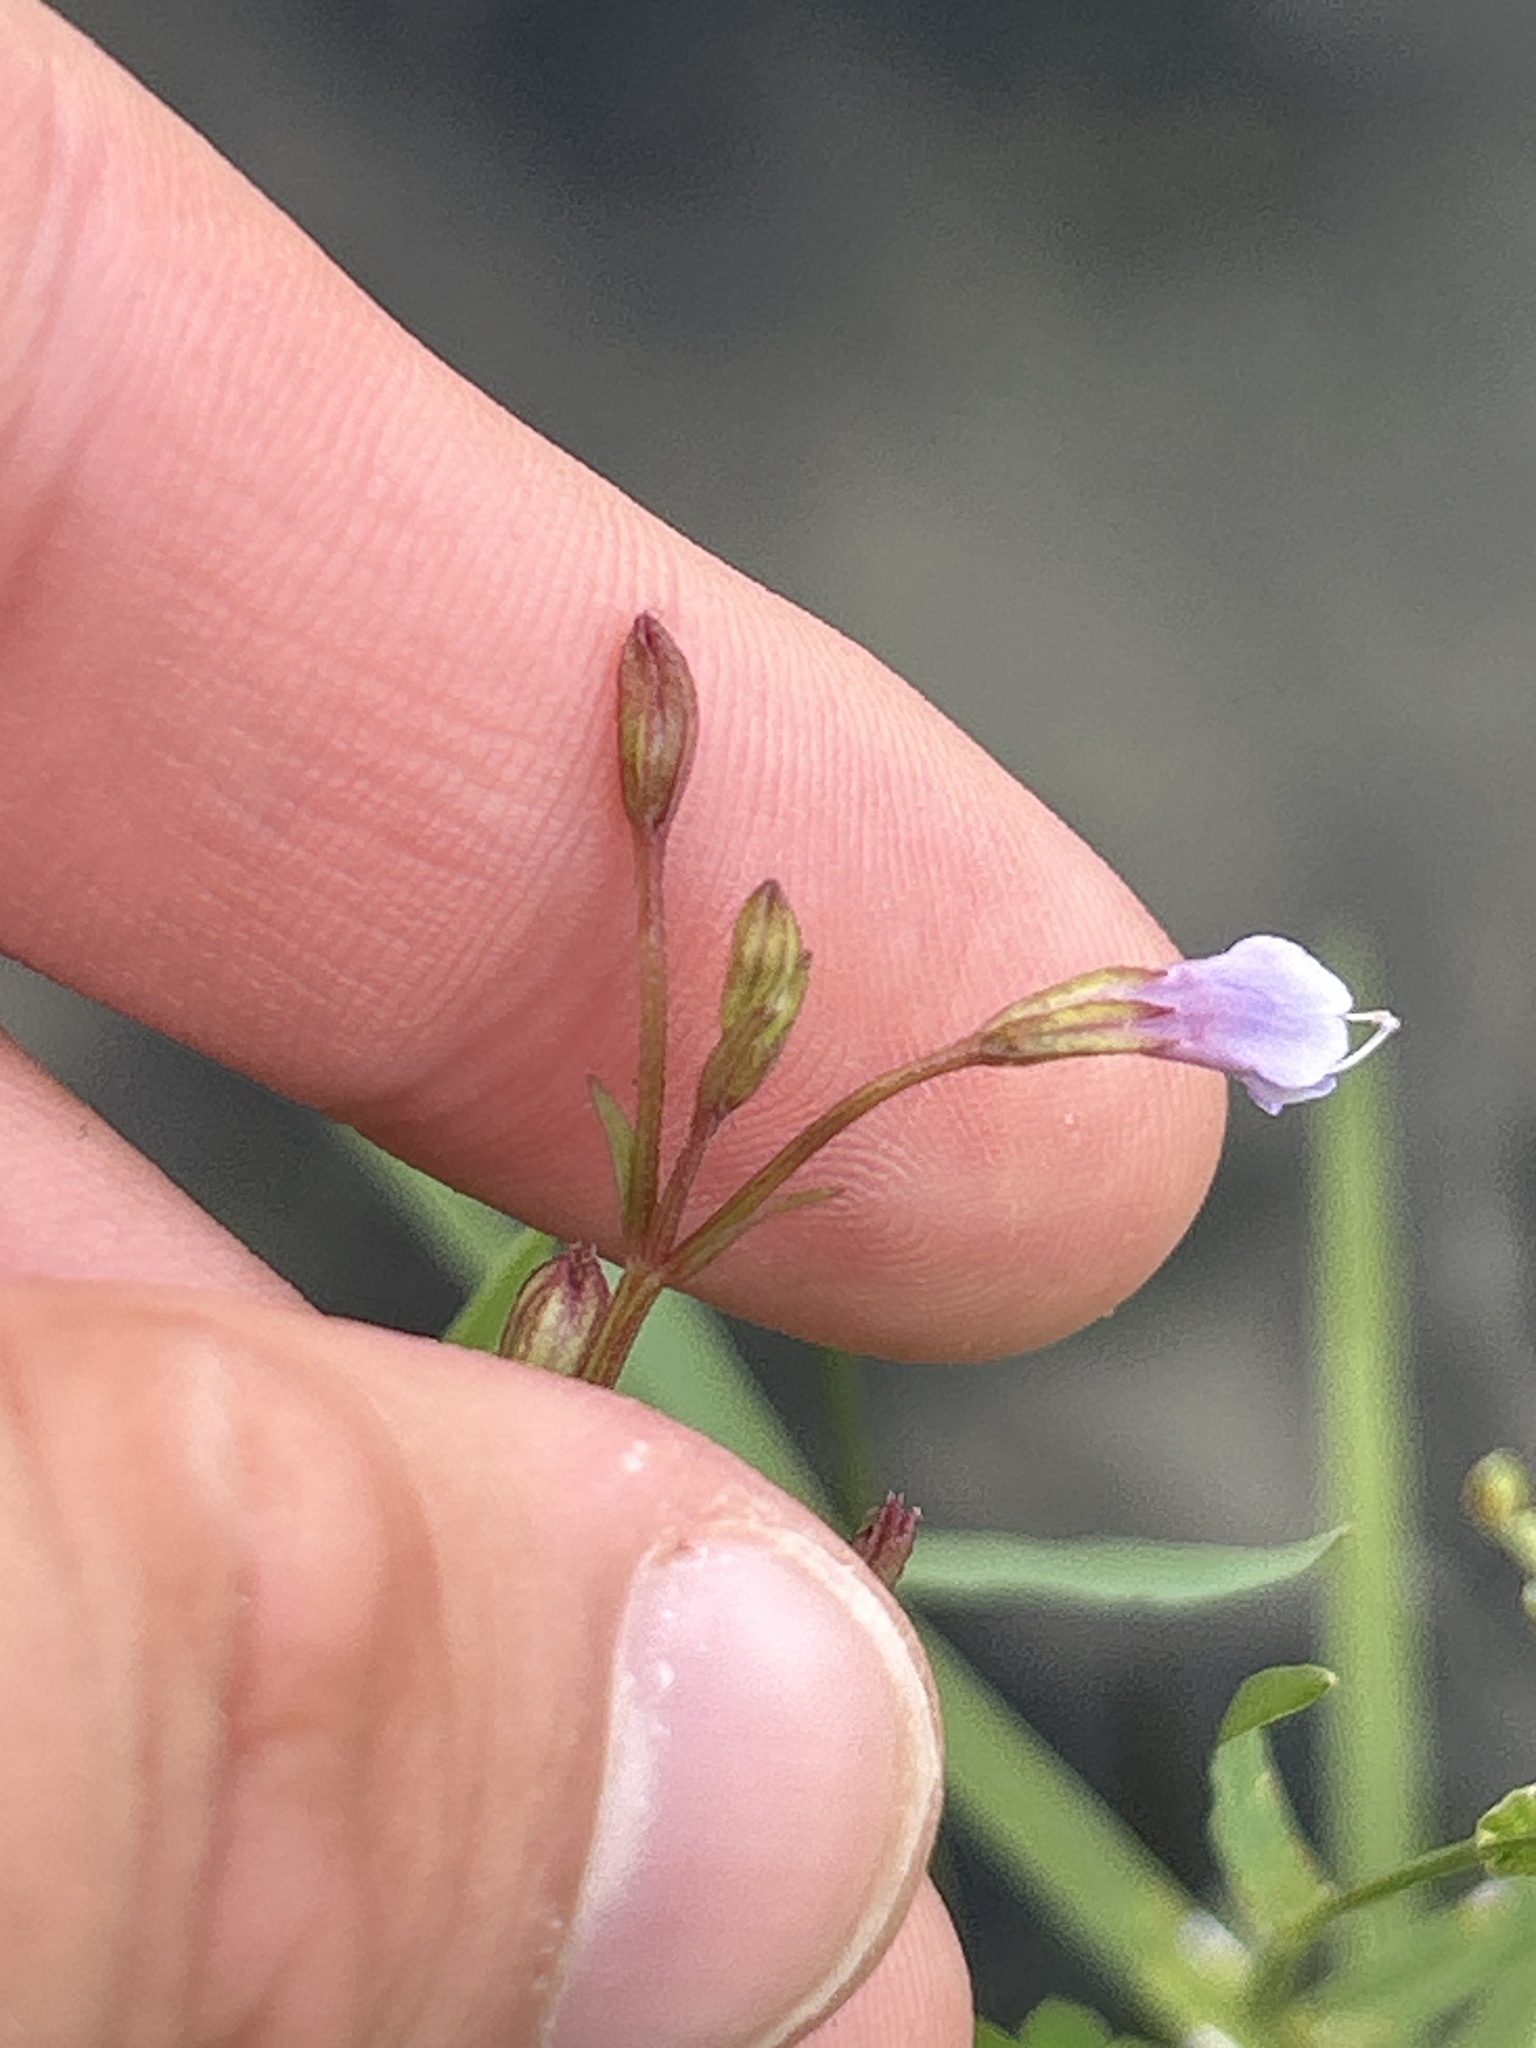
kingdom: Plantae
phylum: Tracheophyta
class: Magnoliopsida
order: Lamiales
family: Linderniaceae
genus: Torenia
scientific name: Torenia crustacea
